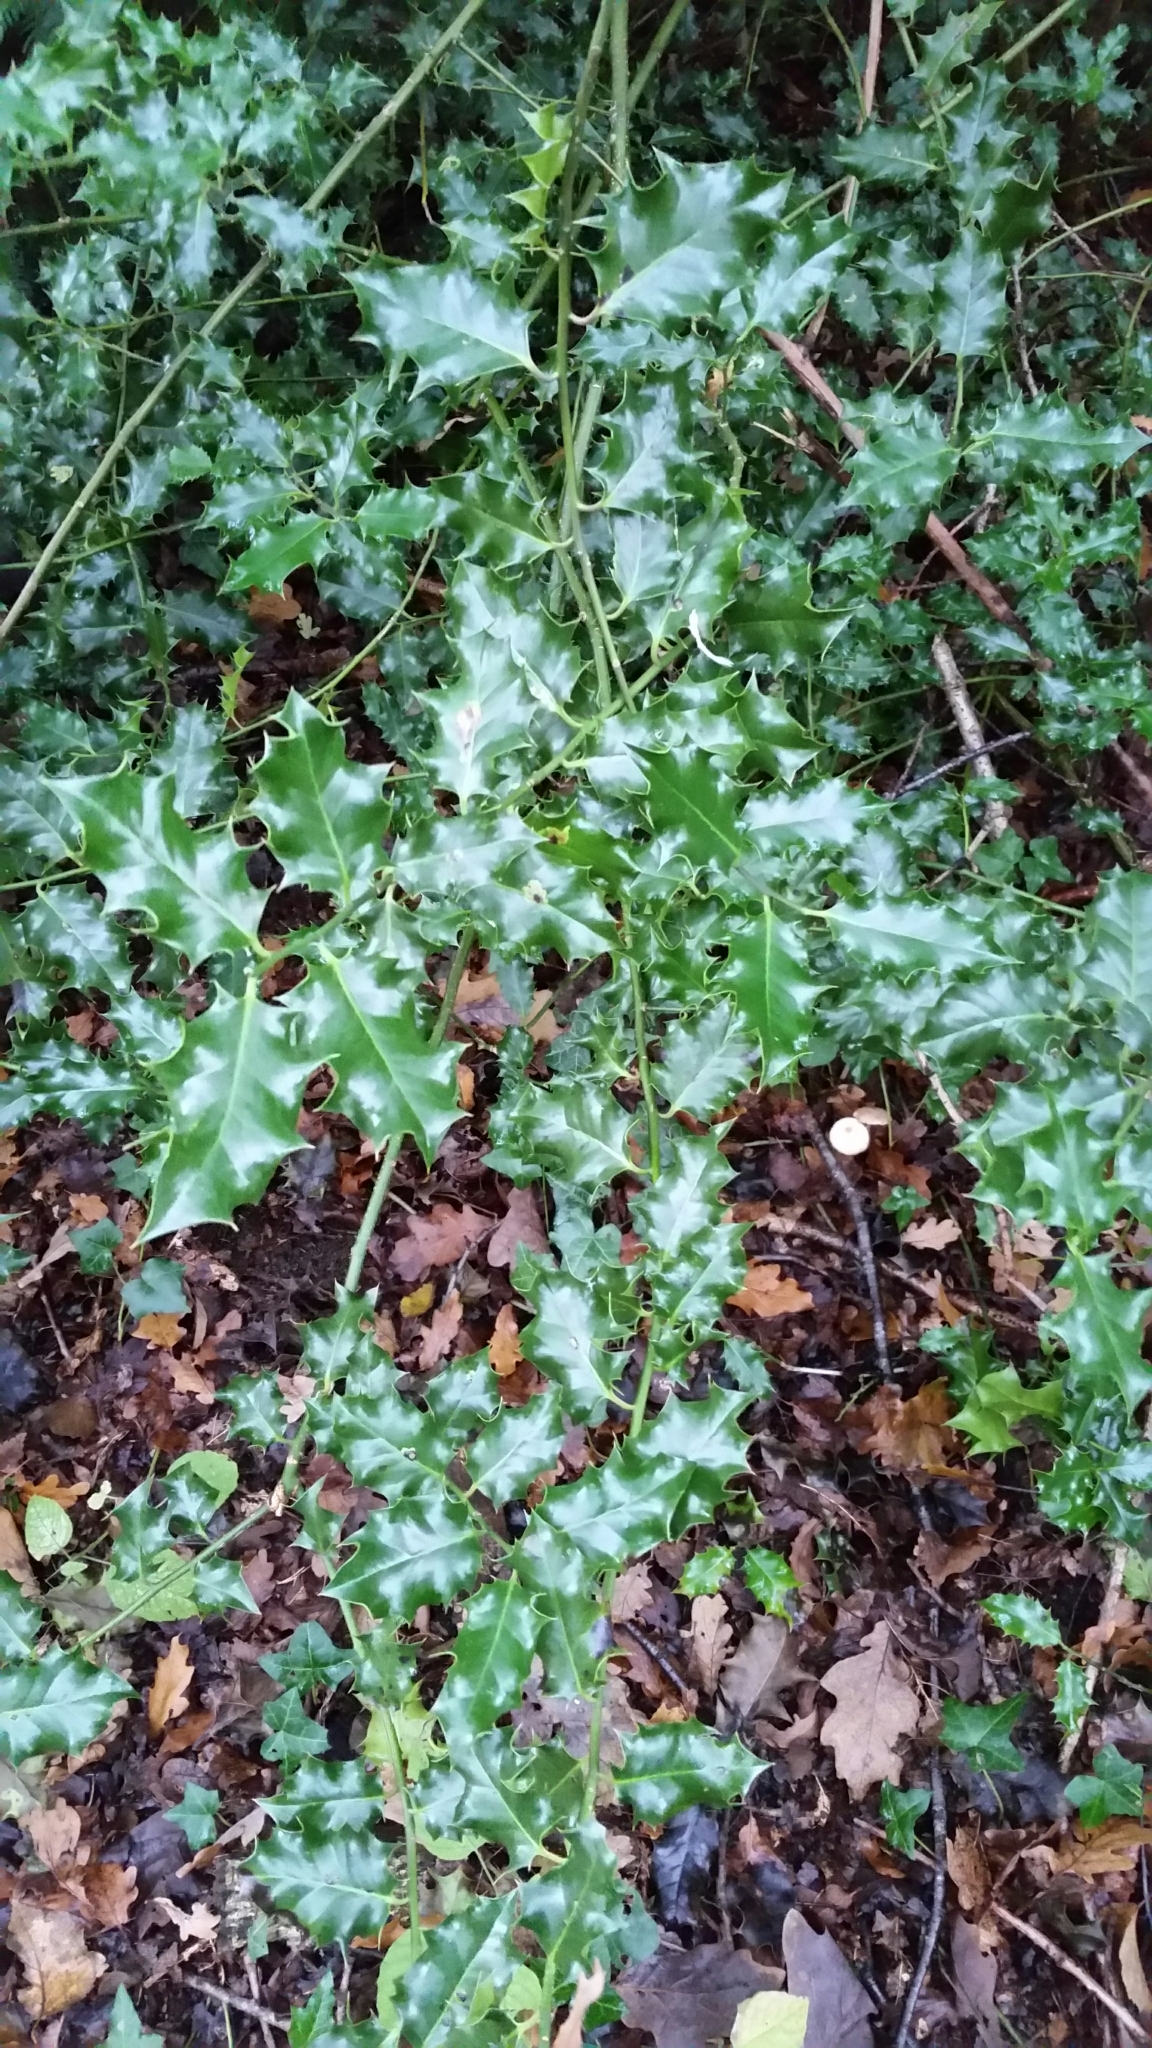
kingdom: Plantae
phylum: Tracheophyta
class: Magnoliopsida
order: Aquifoliales
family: Aquifoliaceae
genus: Ilex
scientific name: Ilex aquifolium
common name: English holly
